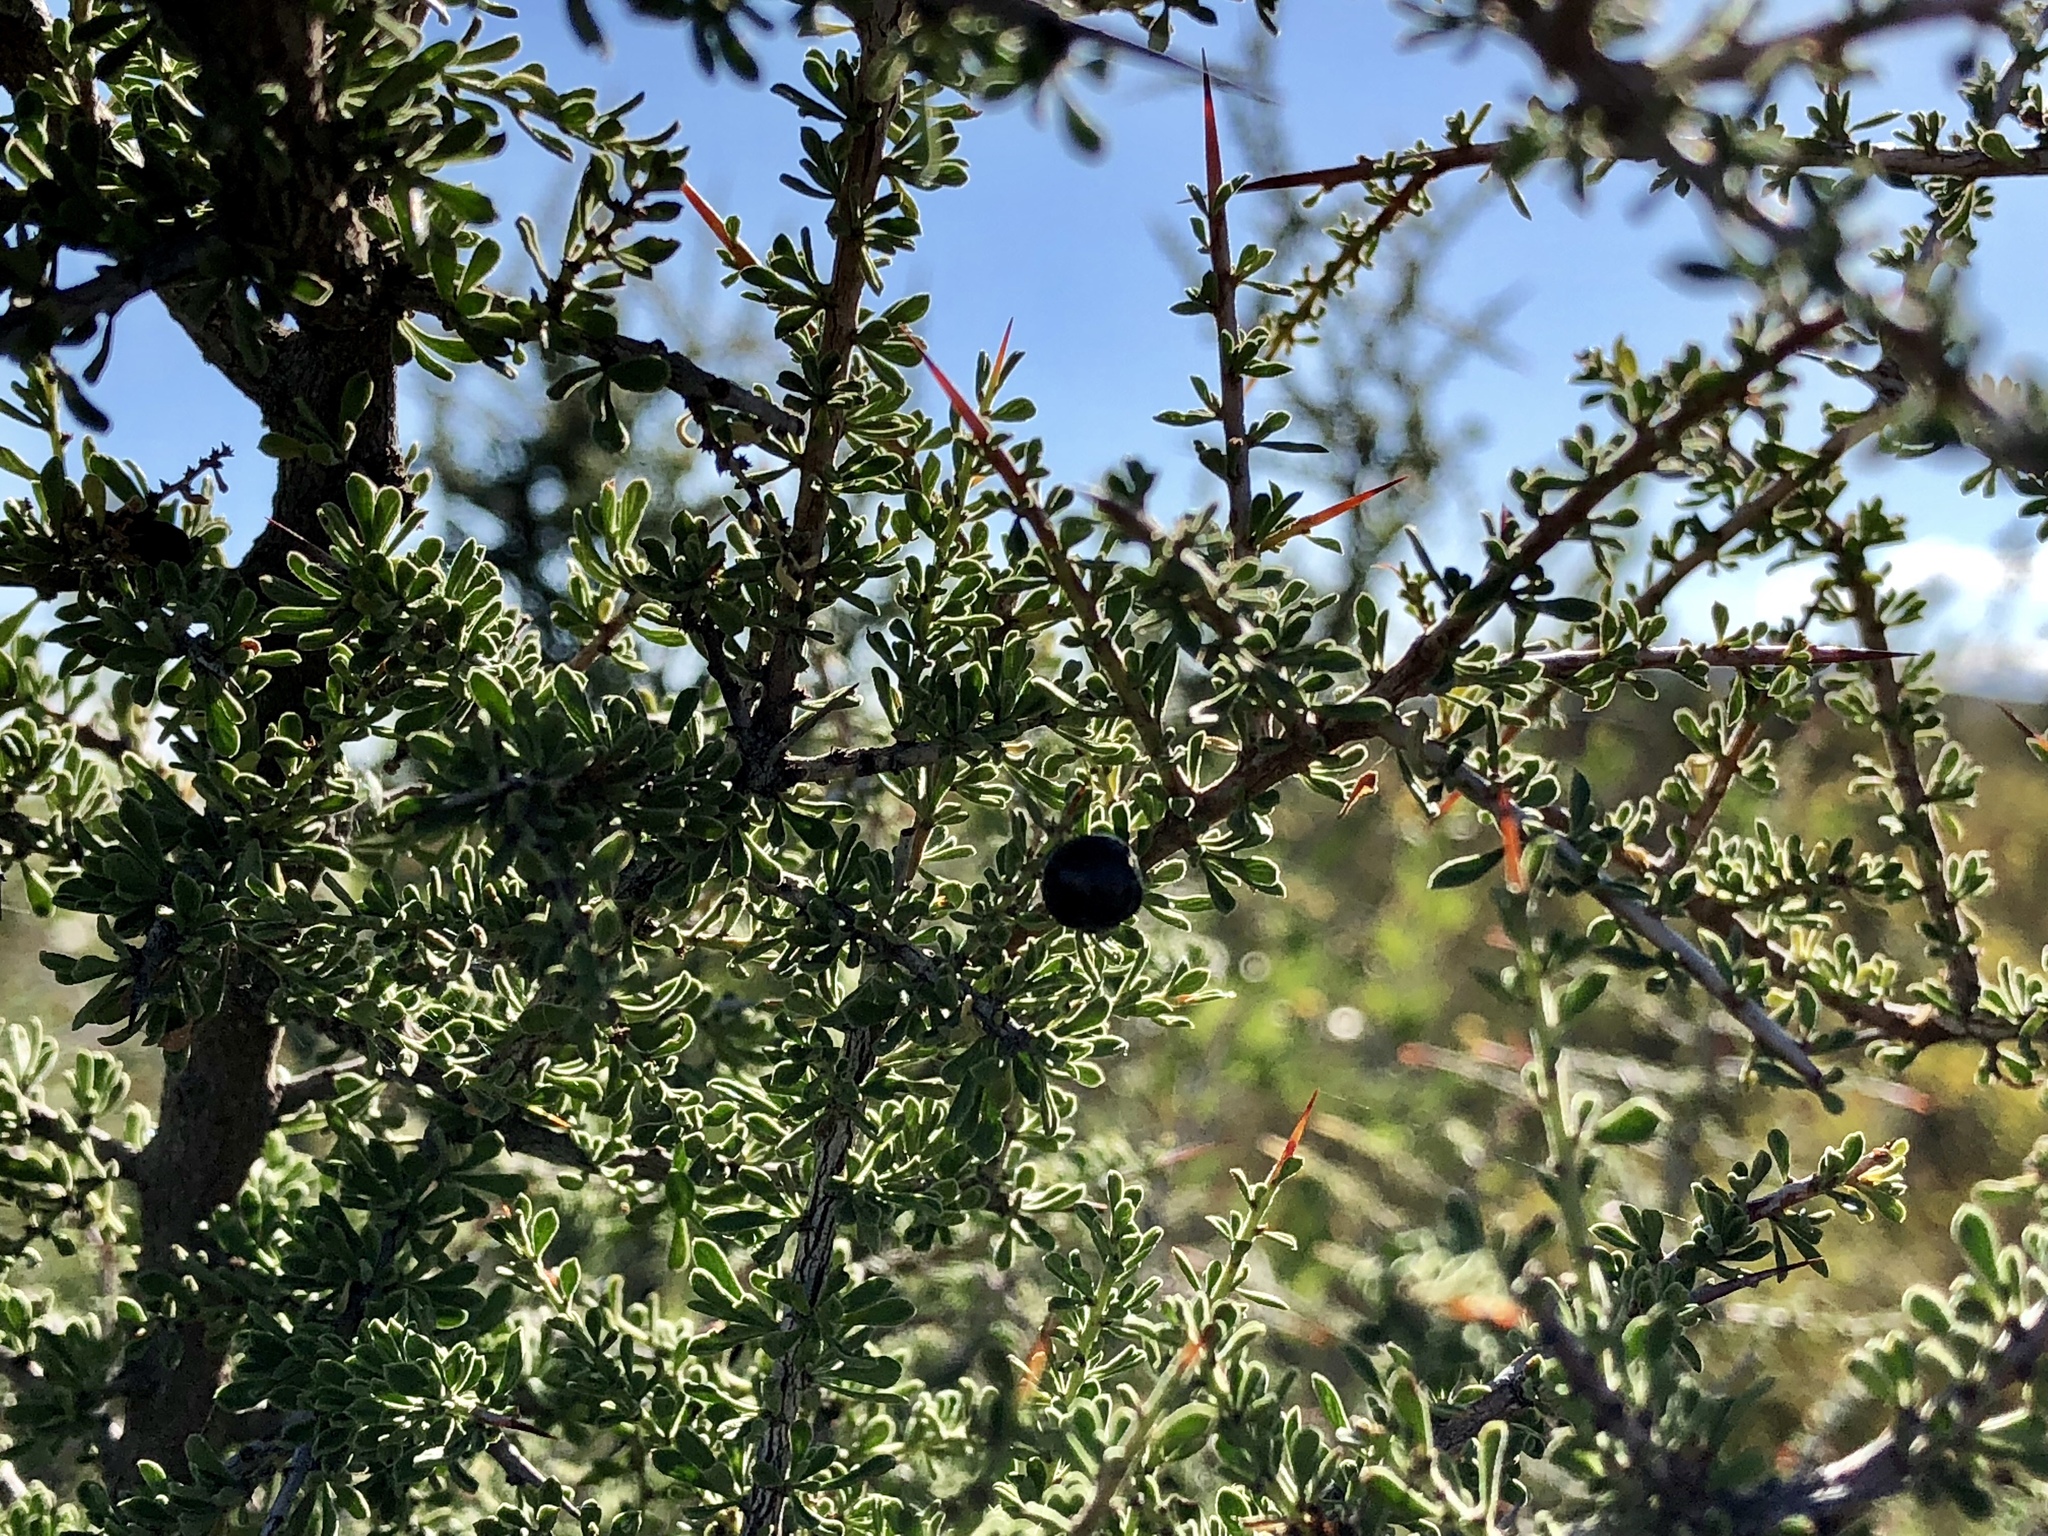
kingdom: Plantae
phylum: Tracheophyta
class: Magnoliopsida
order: Rosales
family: Rhamnaceae
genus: Condalia
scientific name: Condalia warnockii
